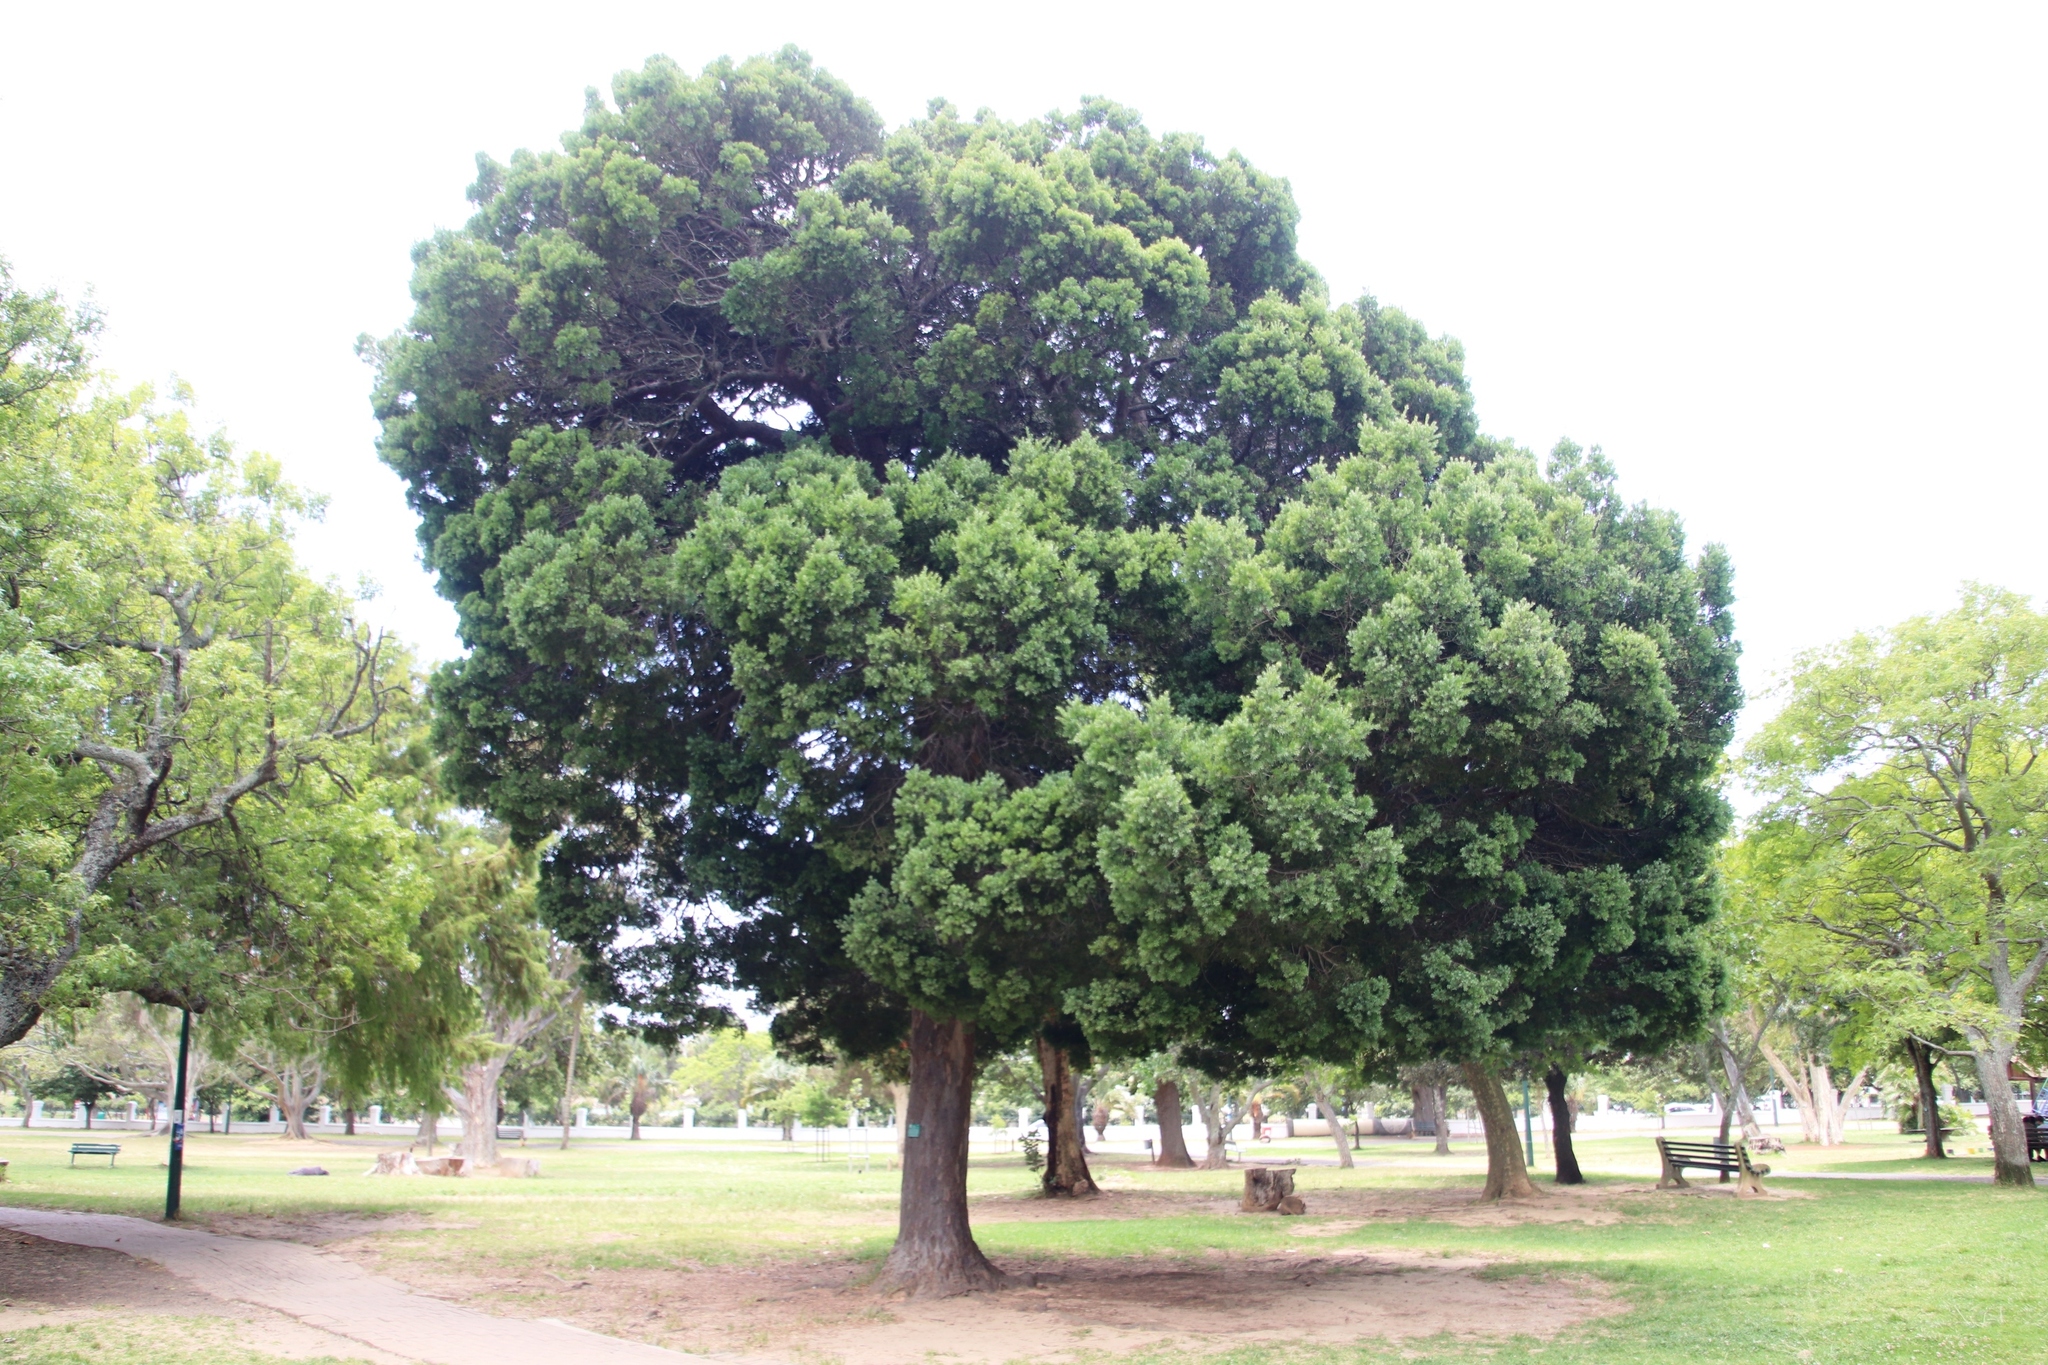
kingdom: Plantae
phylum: Tracheophyta
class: Pinopsida
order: Pinales
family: Podocarpaceae
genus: Afrocarpus
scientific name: Afrocarpus falcatus
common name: Bastard yellowwood
